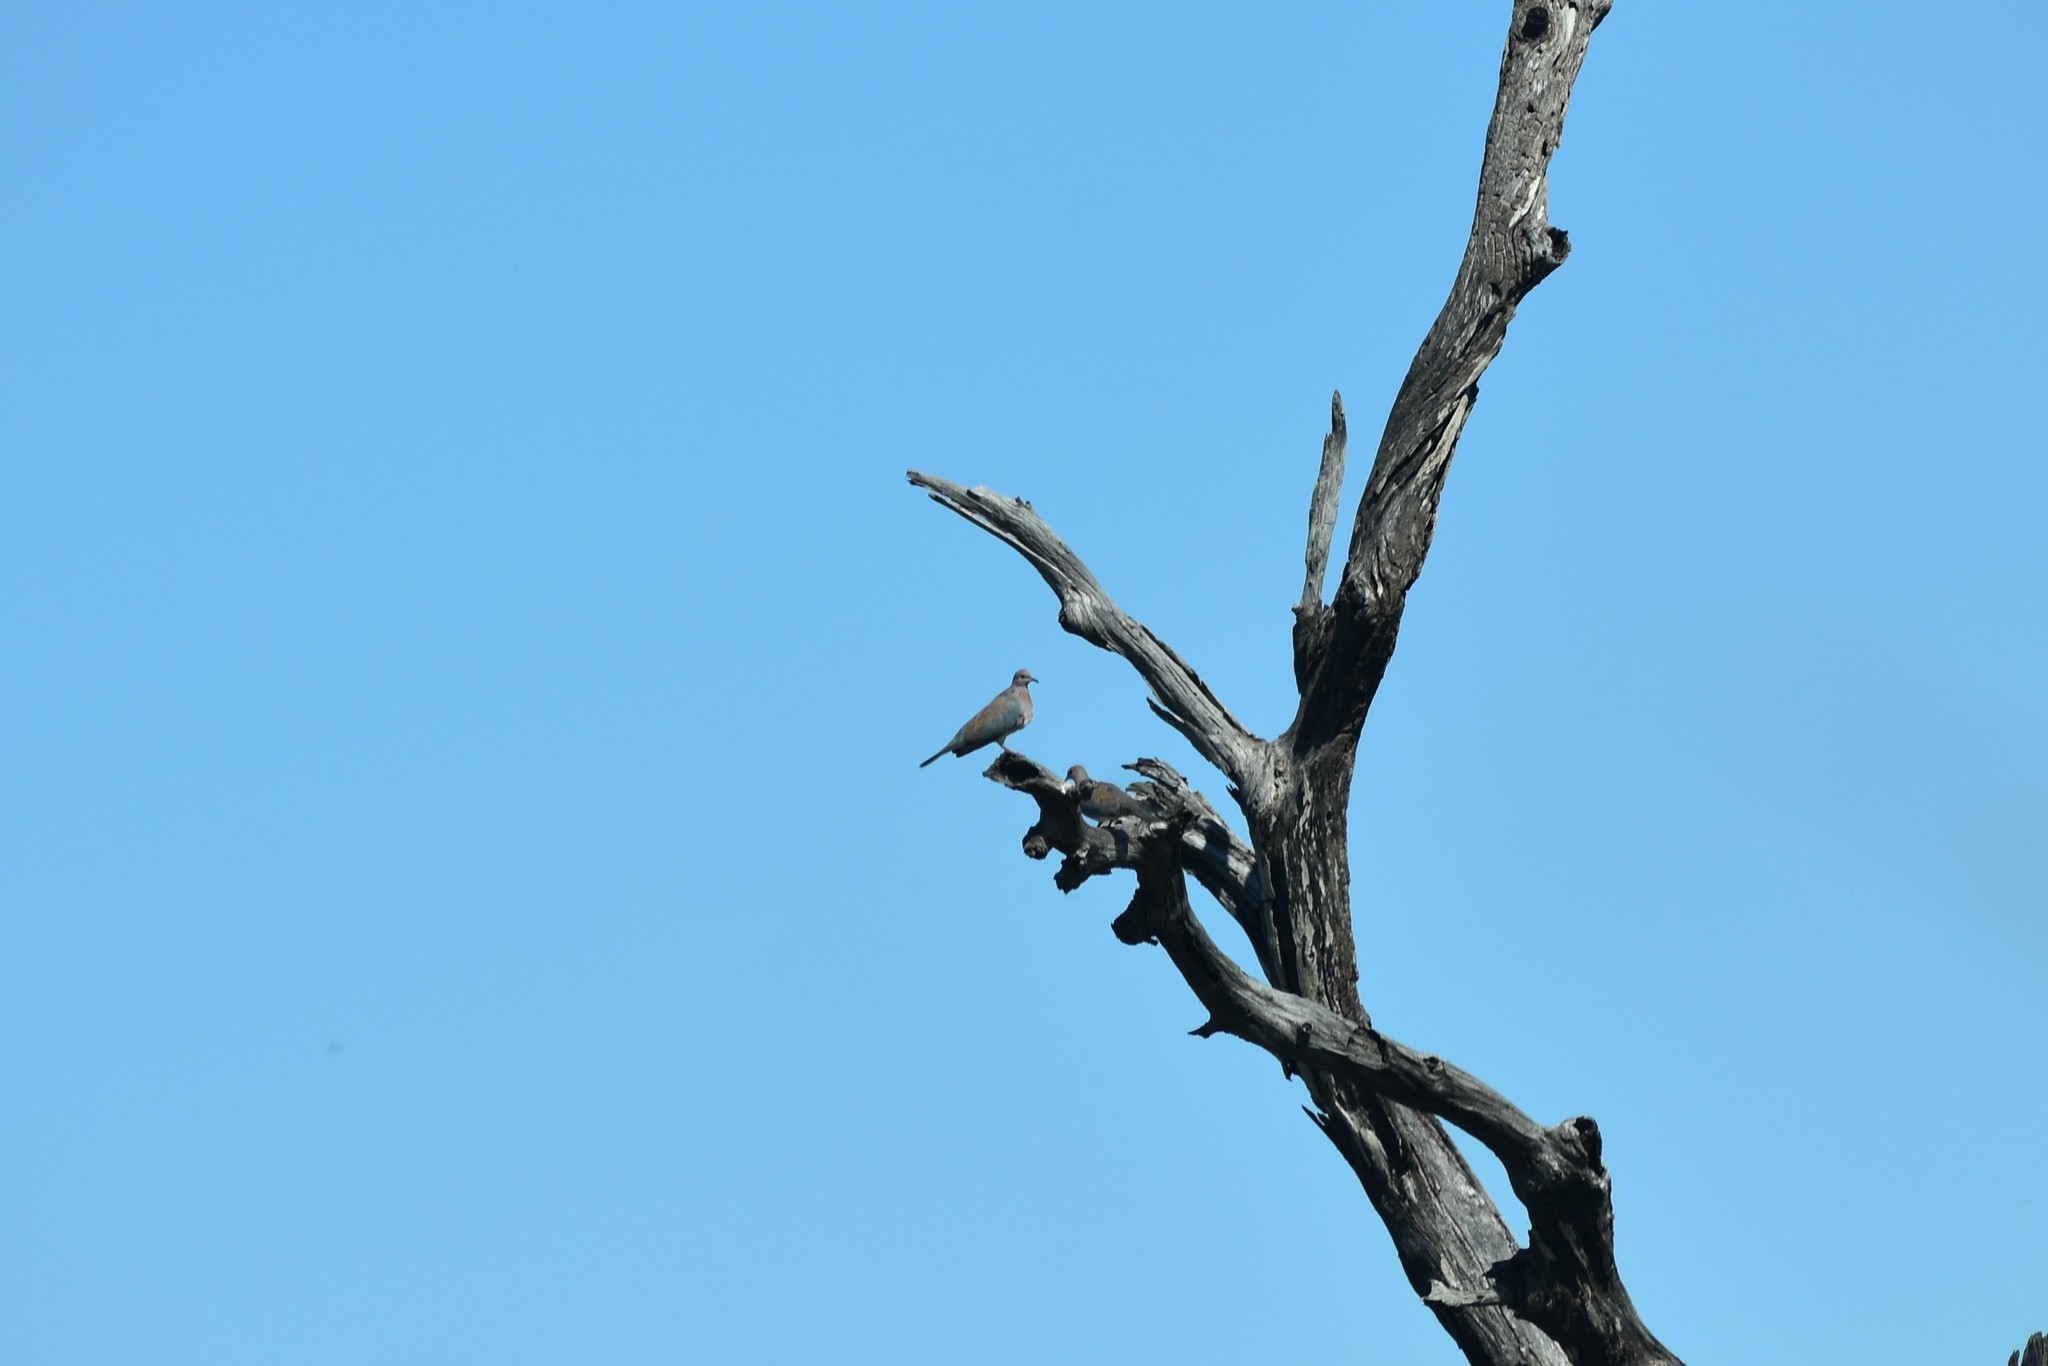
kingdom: Animalia
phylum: Chordata
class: Aves
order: Columbiformes
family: Columbidae
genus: Spilopelia
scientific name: Spilopelia senegalensis
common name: Laughing dove
